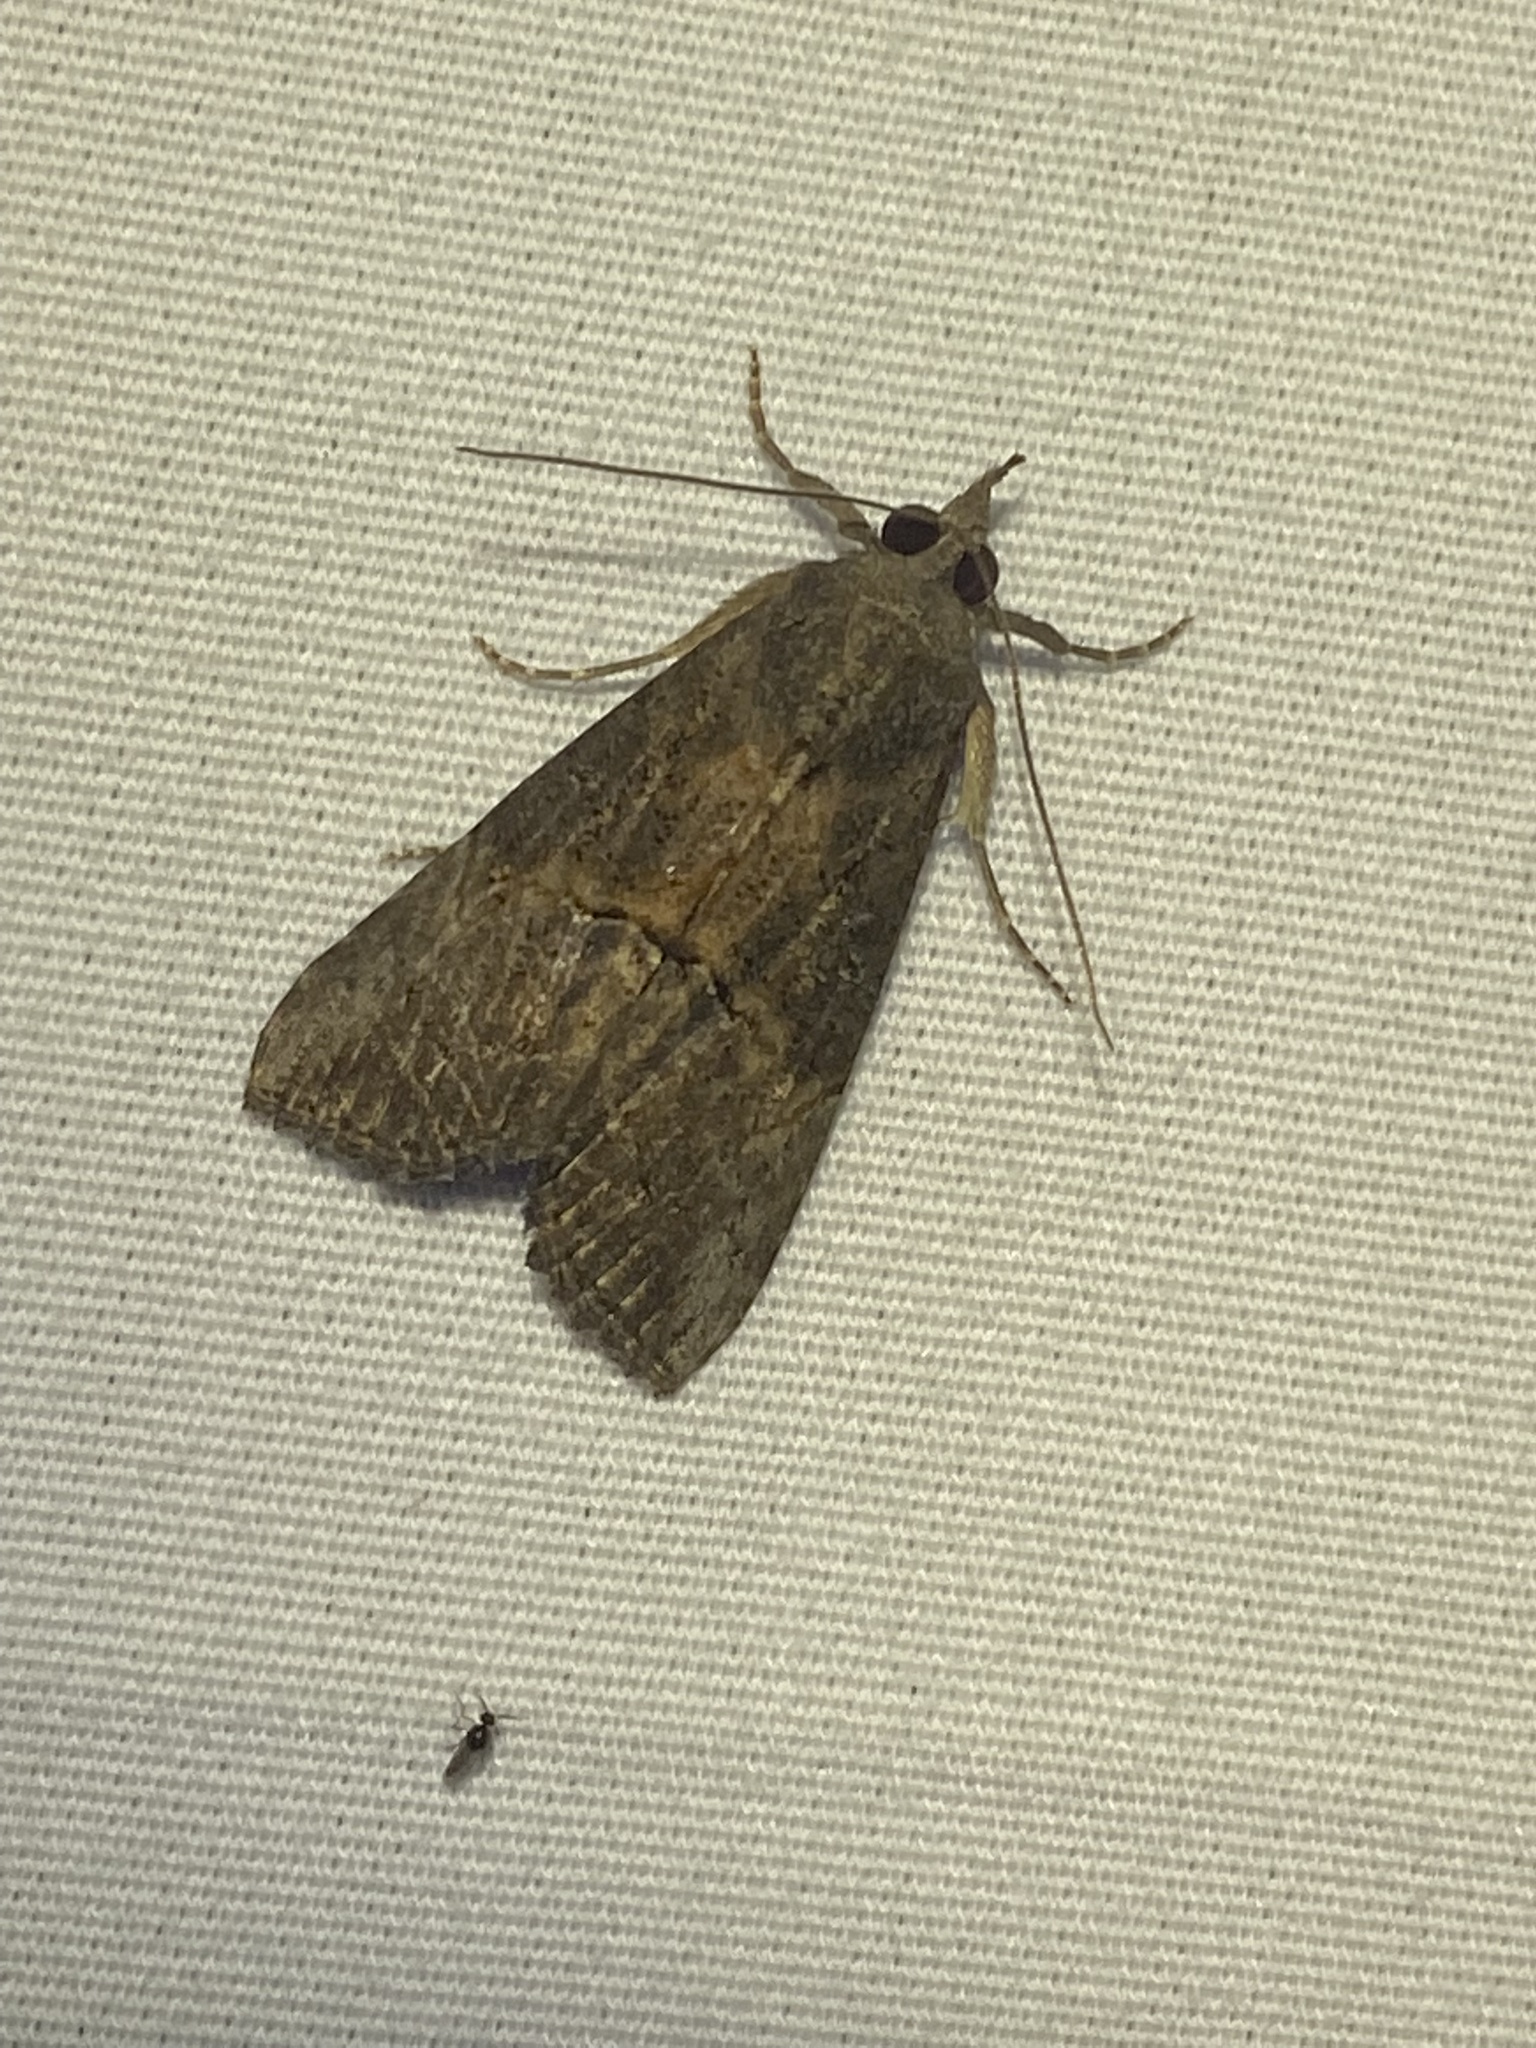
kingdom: Animalia
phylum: Arthropoda
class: Insecta
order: Lepidoptera
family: Erebidae
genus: Hypena
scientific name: Hypena scabra
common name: Green cloverworm
